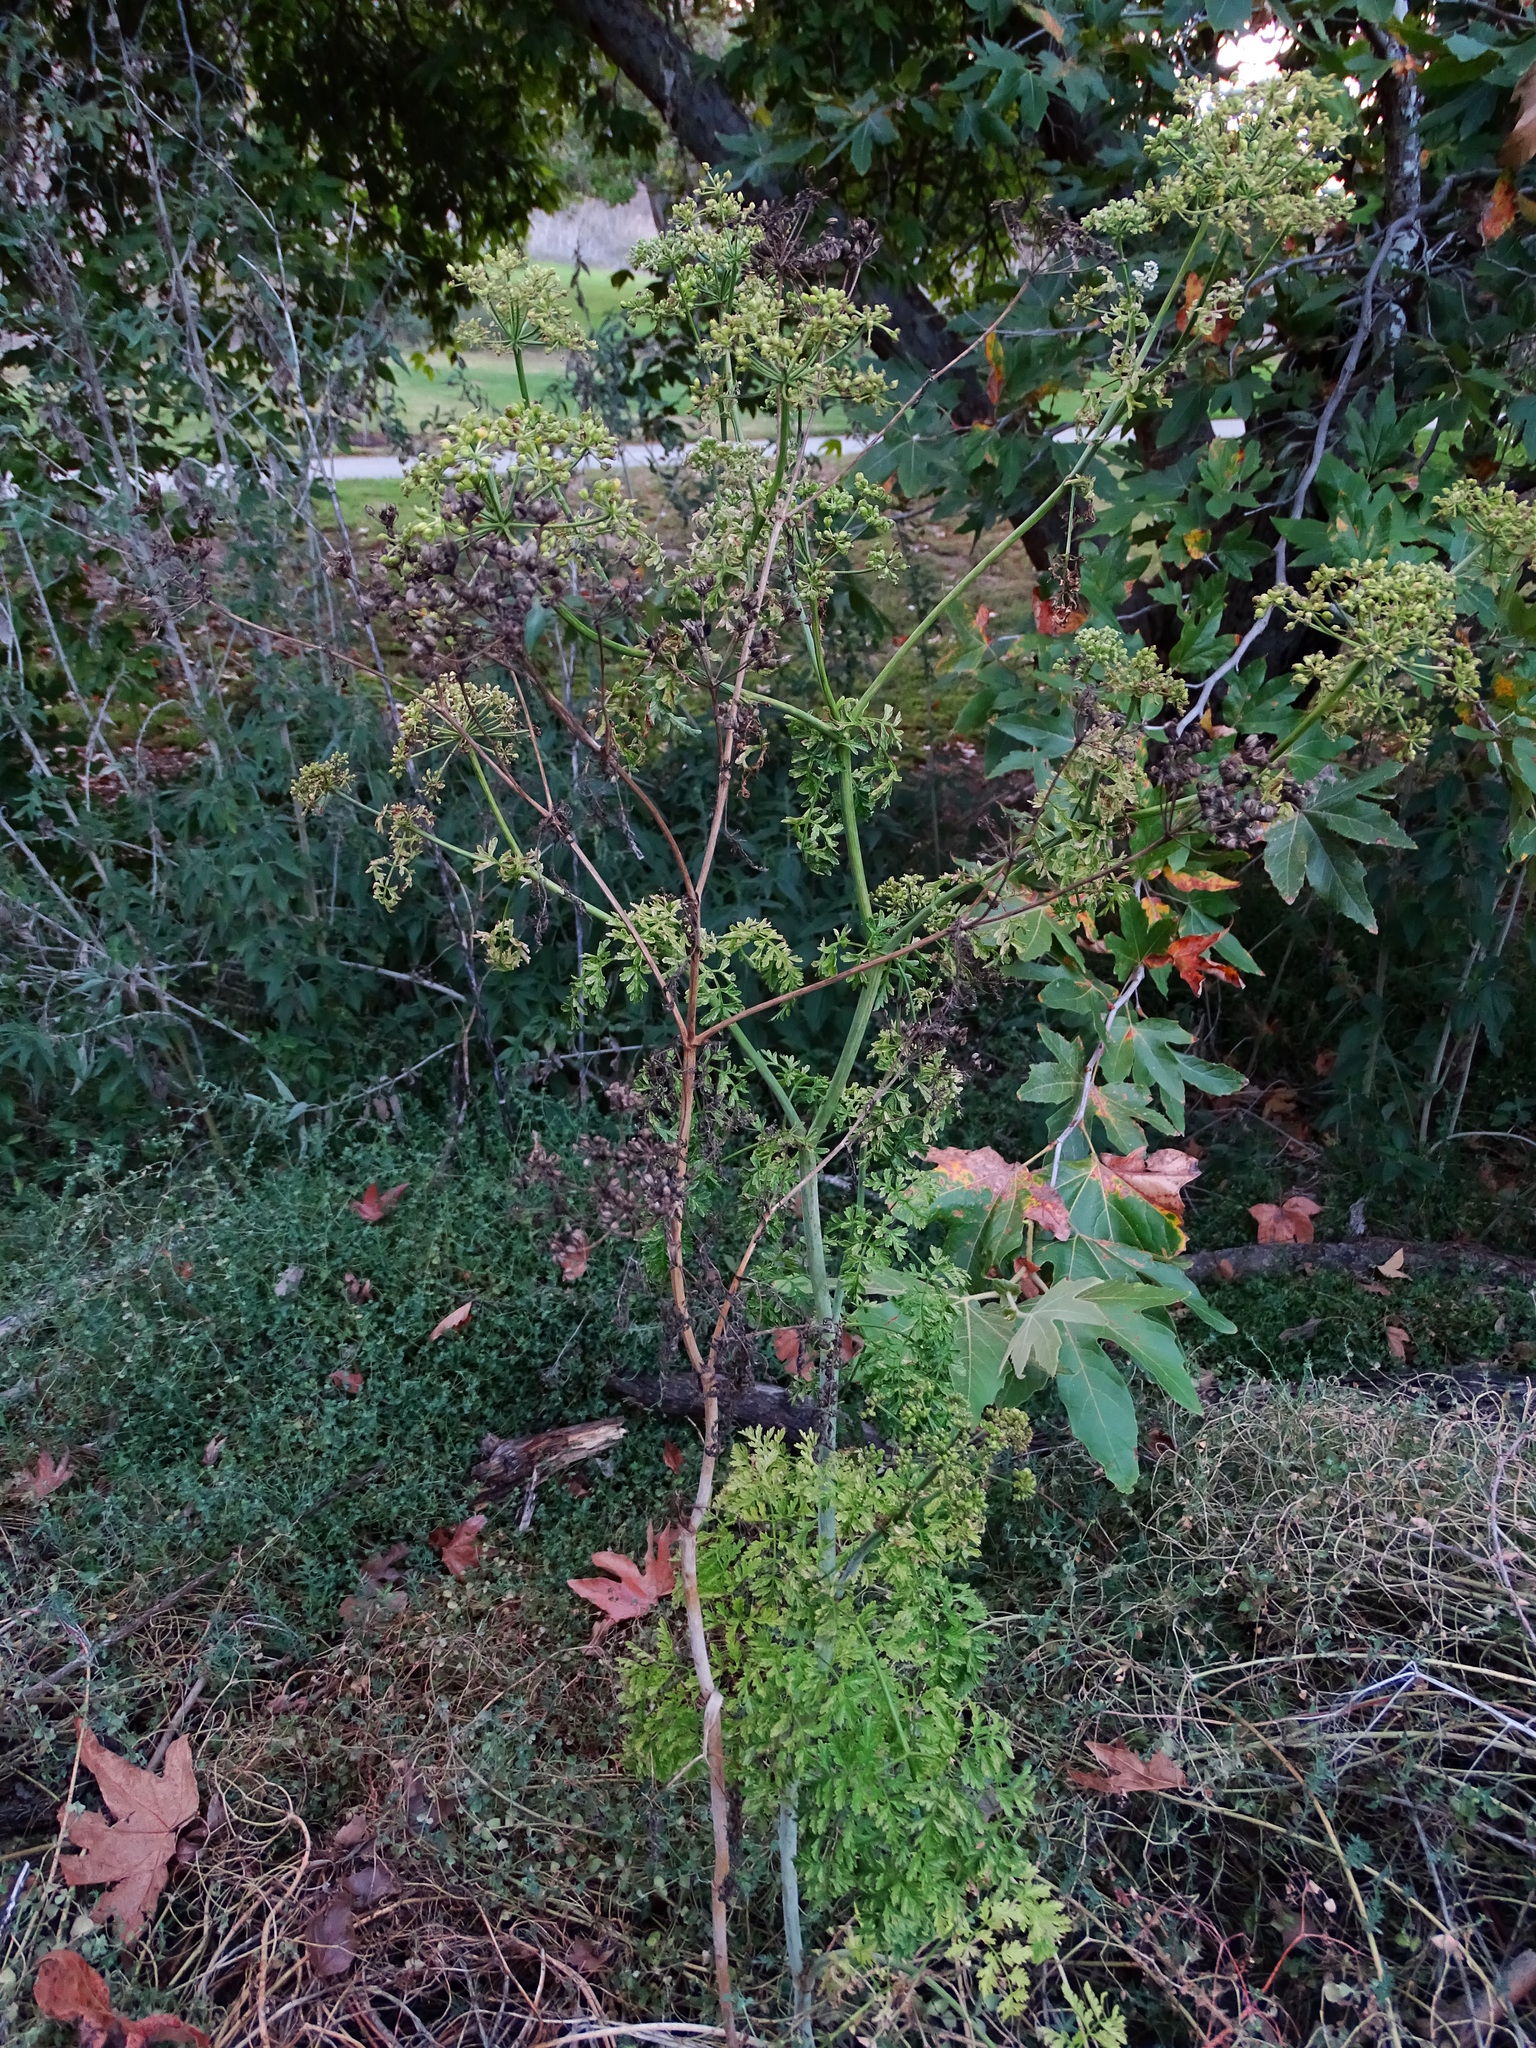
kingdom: Plantae
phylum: Tracheophyta
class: Magnoliopsida
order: Apiales
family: Apiaceae
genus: Conium
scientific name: Conium maculatum
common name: Hemlock
